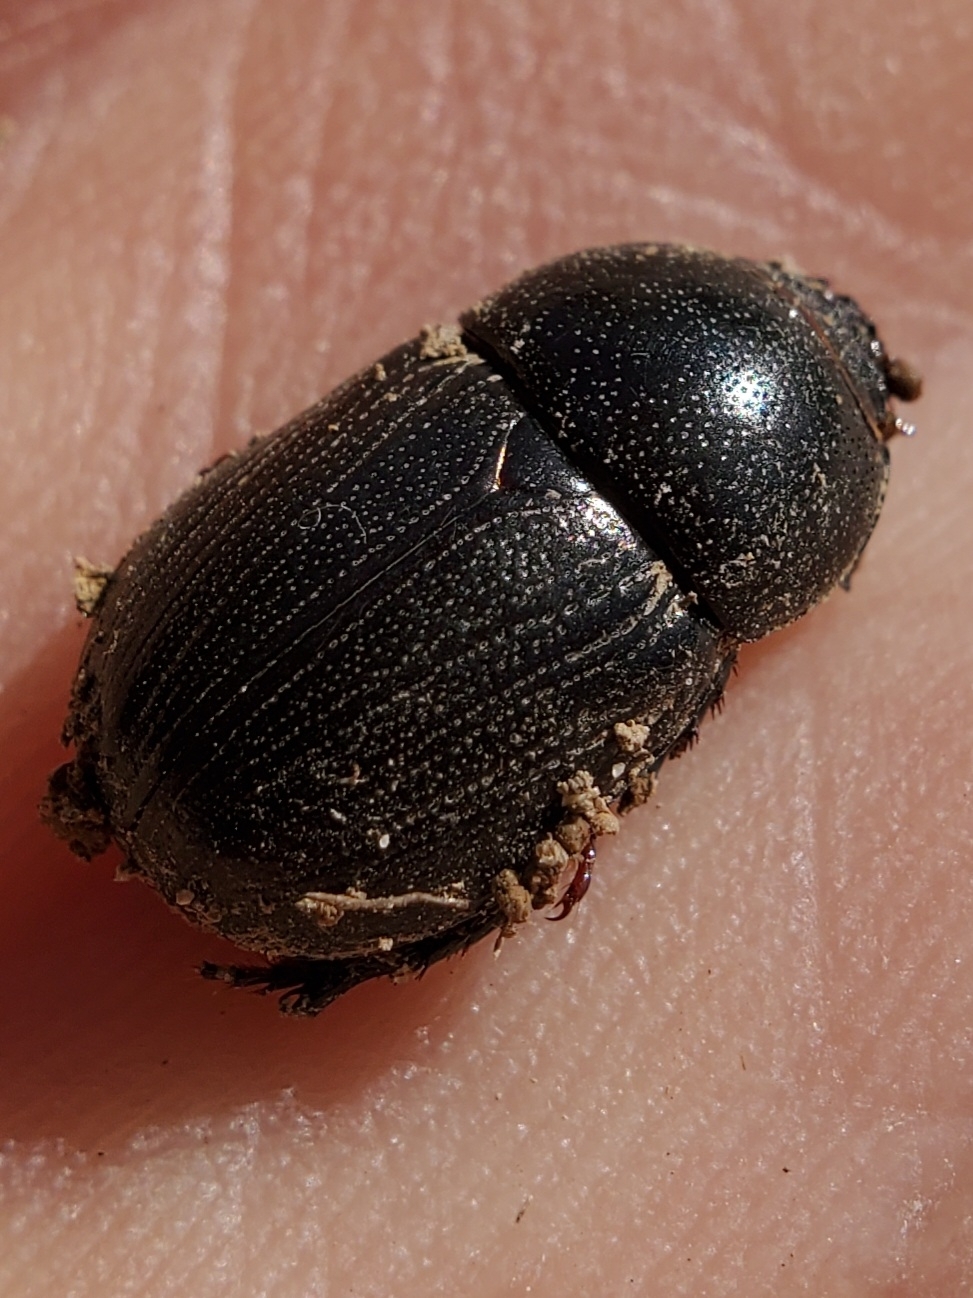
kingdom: Animalia
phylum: Arthropoda
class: Insecta
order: Coleoptera
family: Scarabaeidae
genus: Euetheola
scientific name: Euetheola humilis
